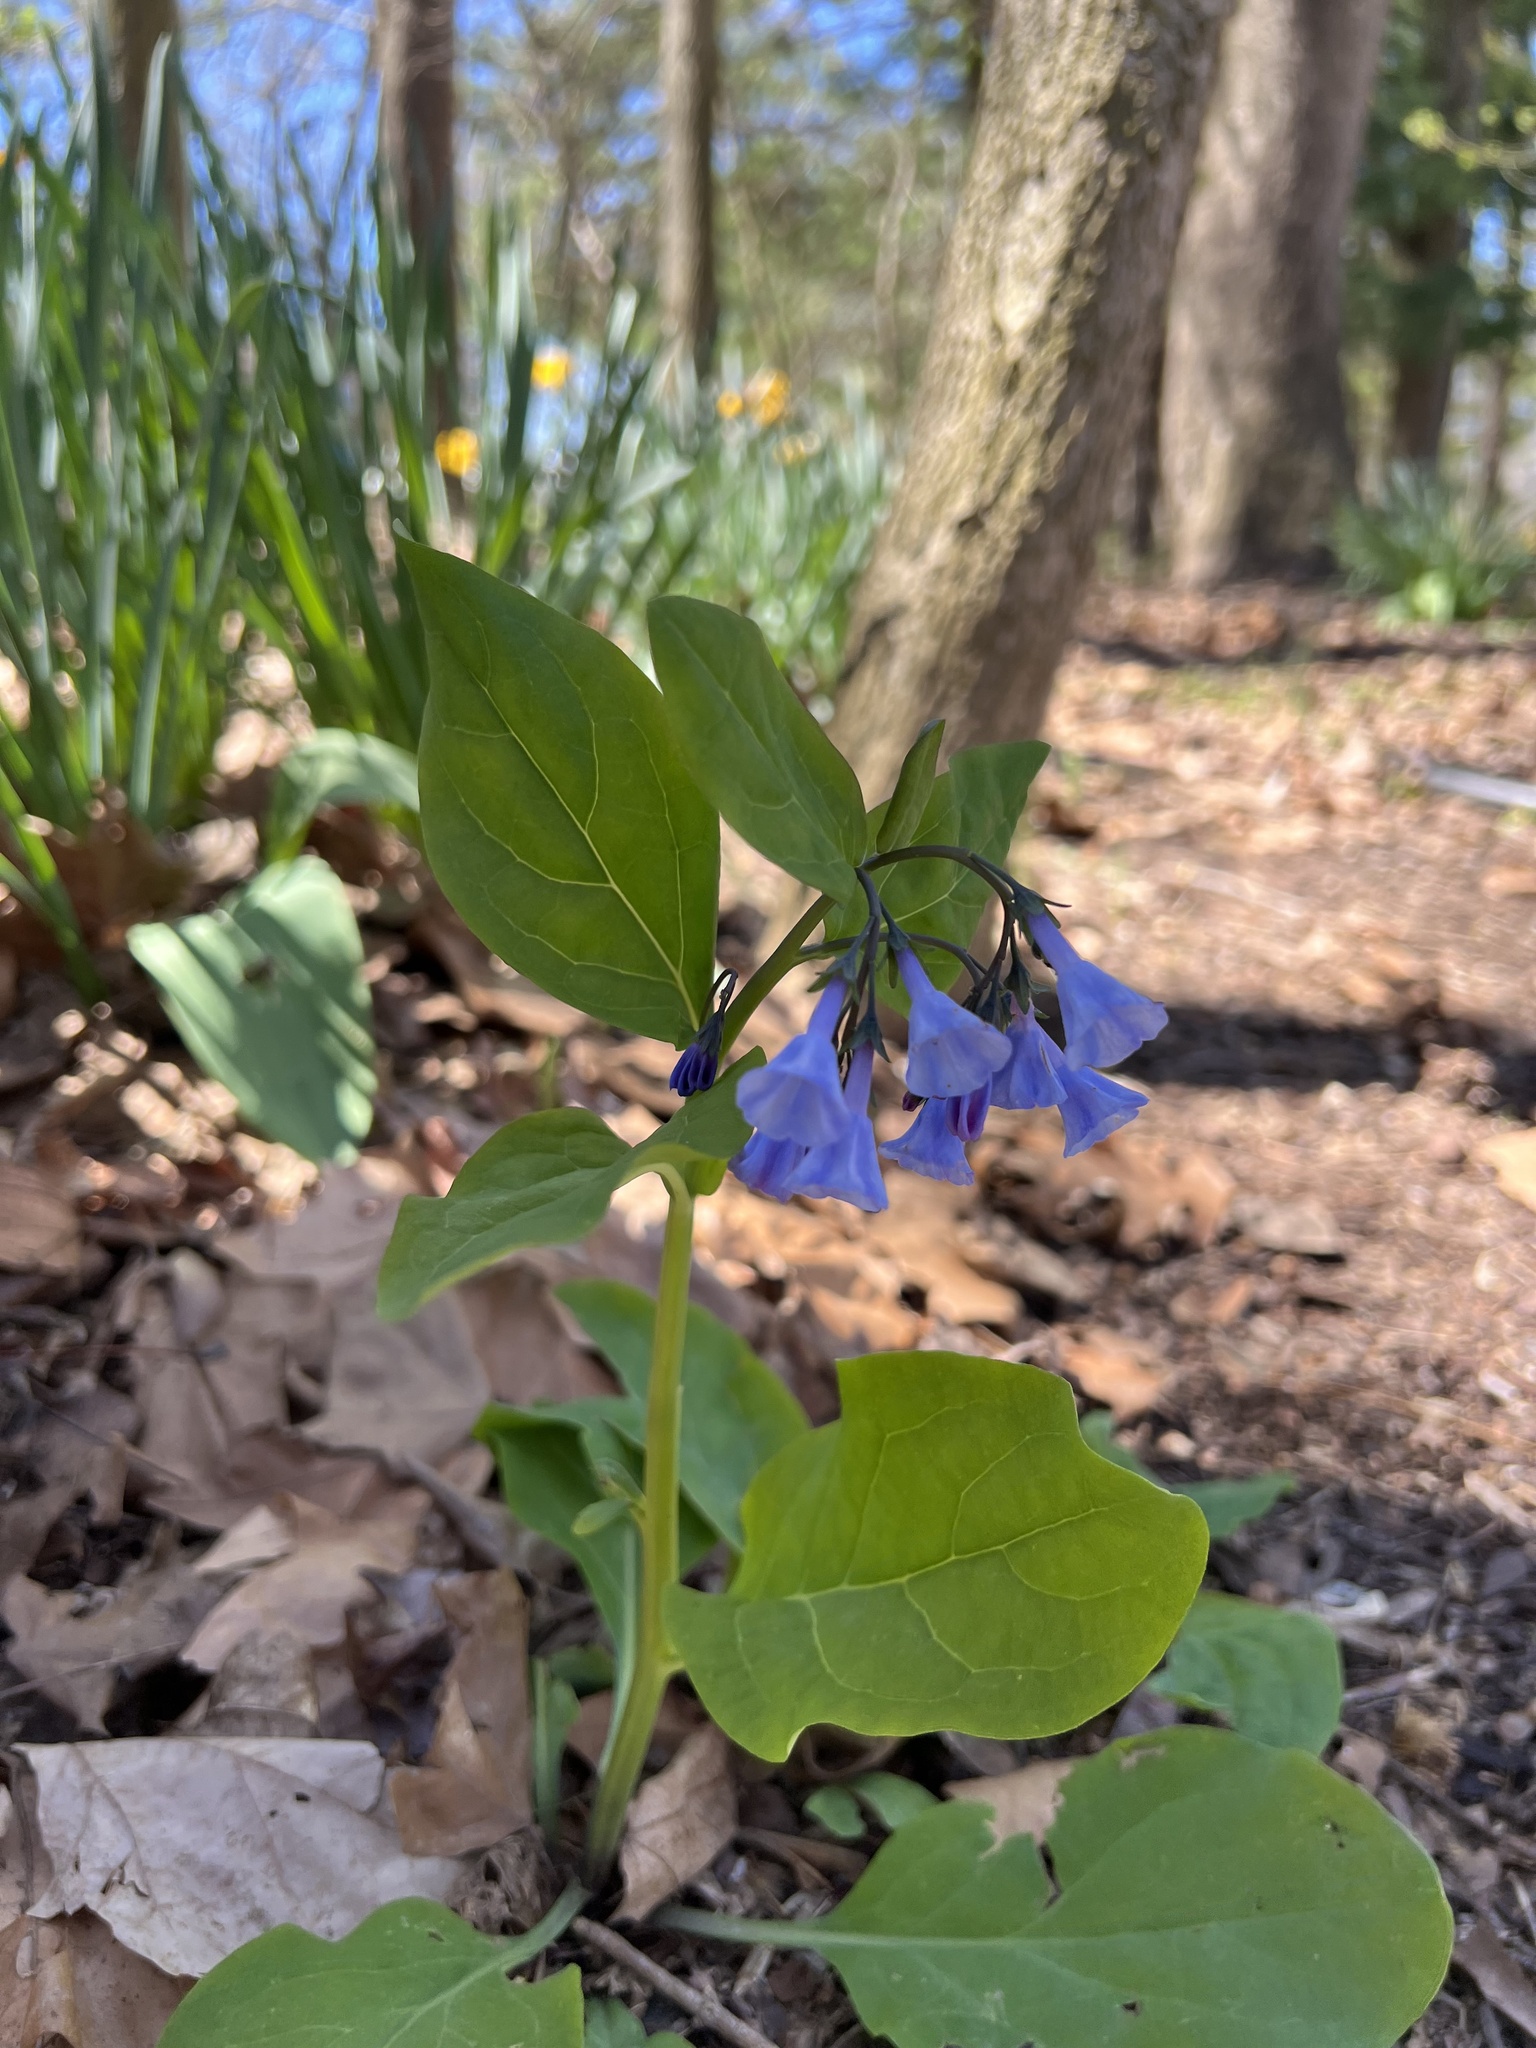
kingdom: Plantae
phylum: Tracheophyta
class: Magnoliopsida
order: Boraginales
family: Boraginaceae
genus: Mertensia
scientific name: Mertensia virginica
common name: Virginia bluebells
